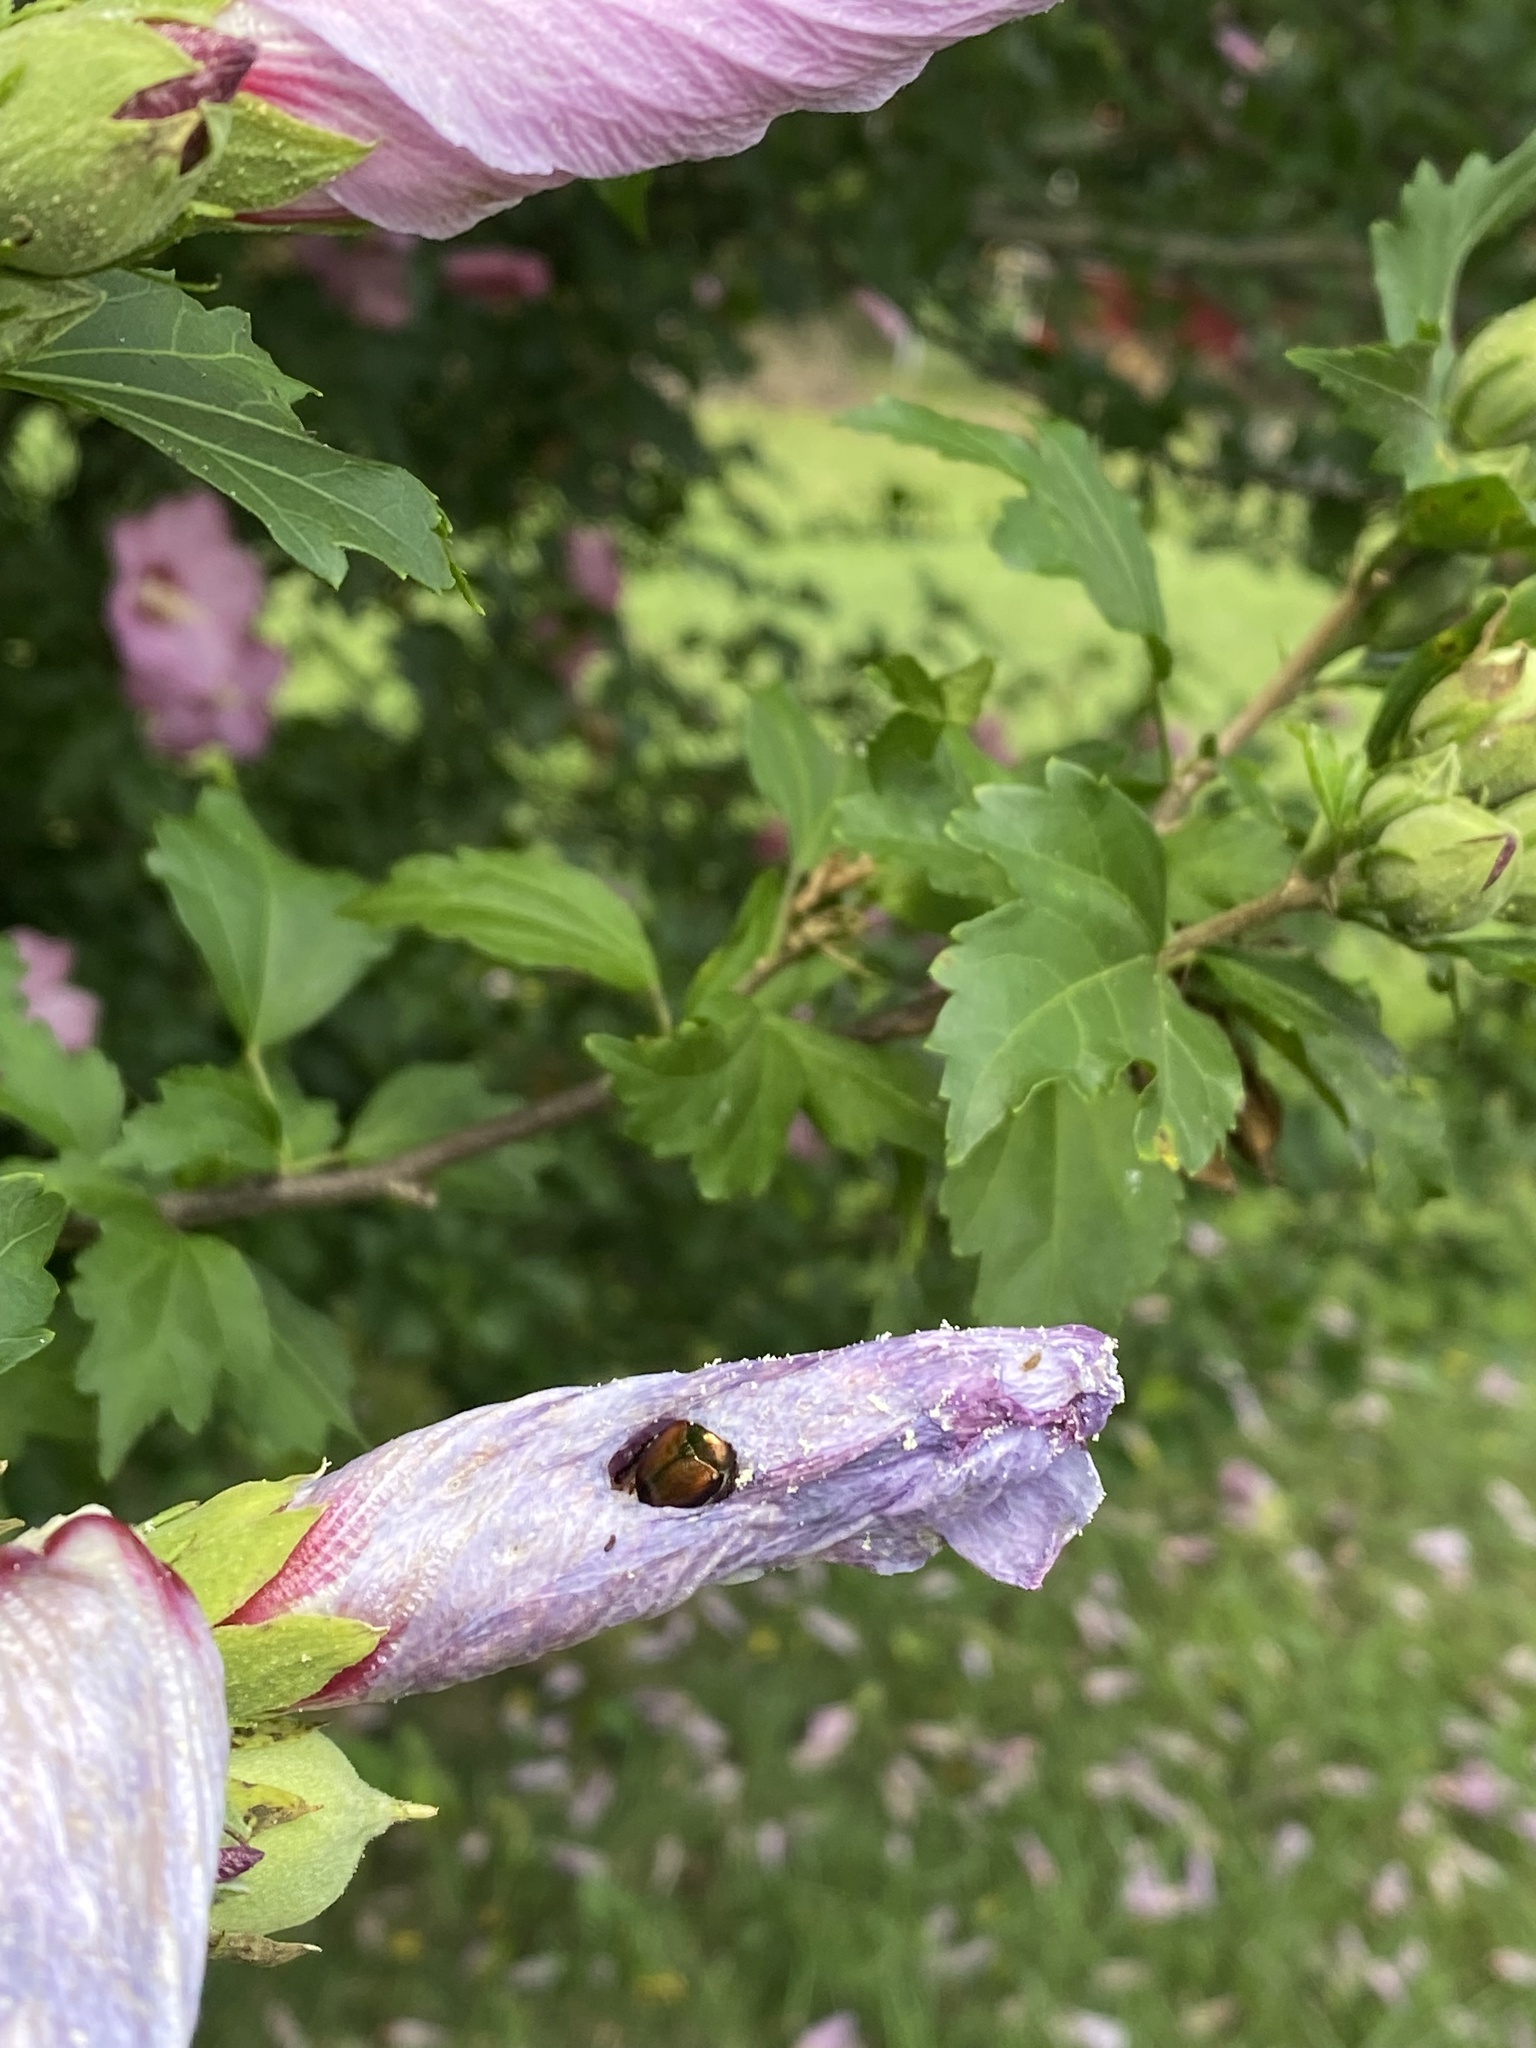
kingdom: Animalia
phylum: Arthropoda
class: Insecta
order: Coleoptera
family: Scarabaeidae
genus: Popillia
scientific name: Popillia japonica
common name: Japanese beetle
